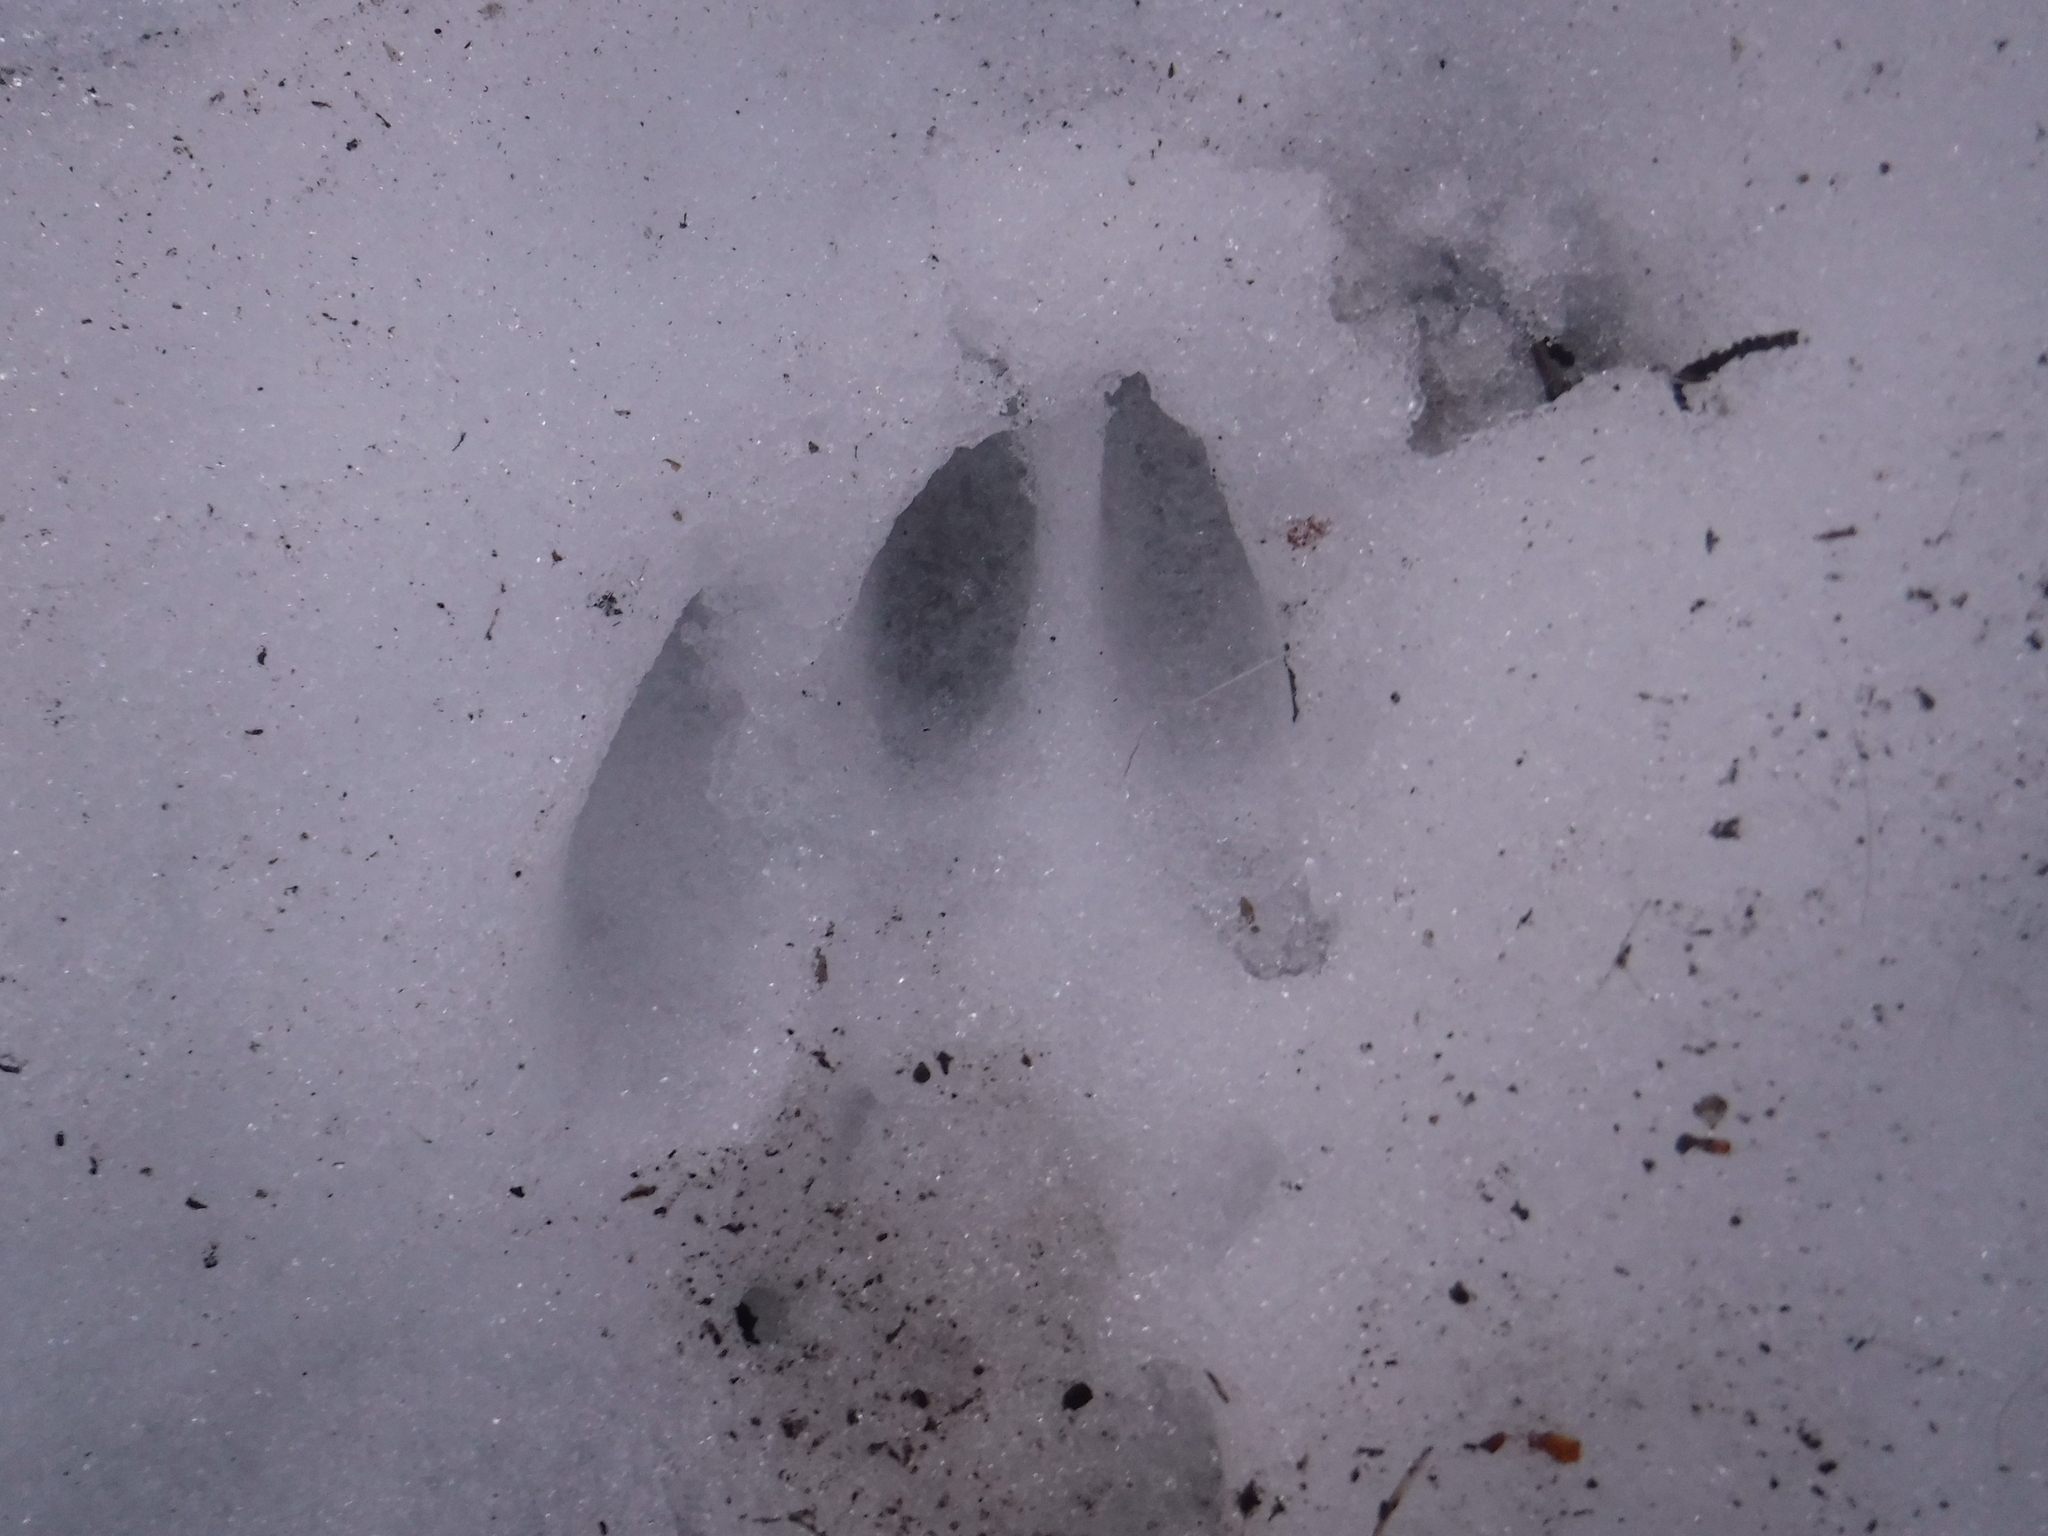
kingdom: Animalia
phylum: Chordata
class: Mammalia
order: Artiodactyla
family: Cervidae
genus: Odocoileus
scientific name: Odocoileus virginianus
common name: White-tailed deer
